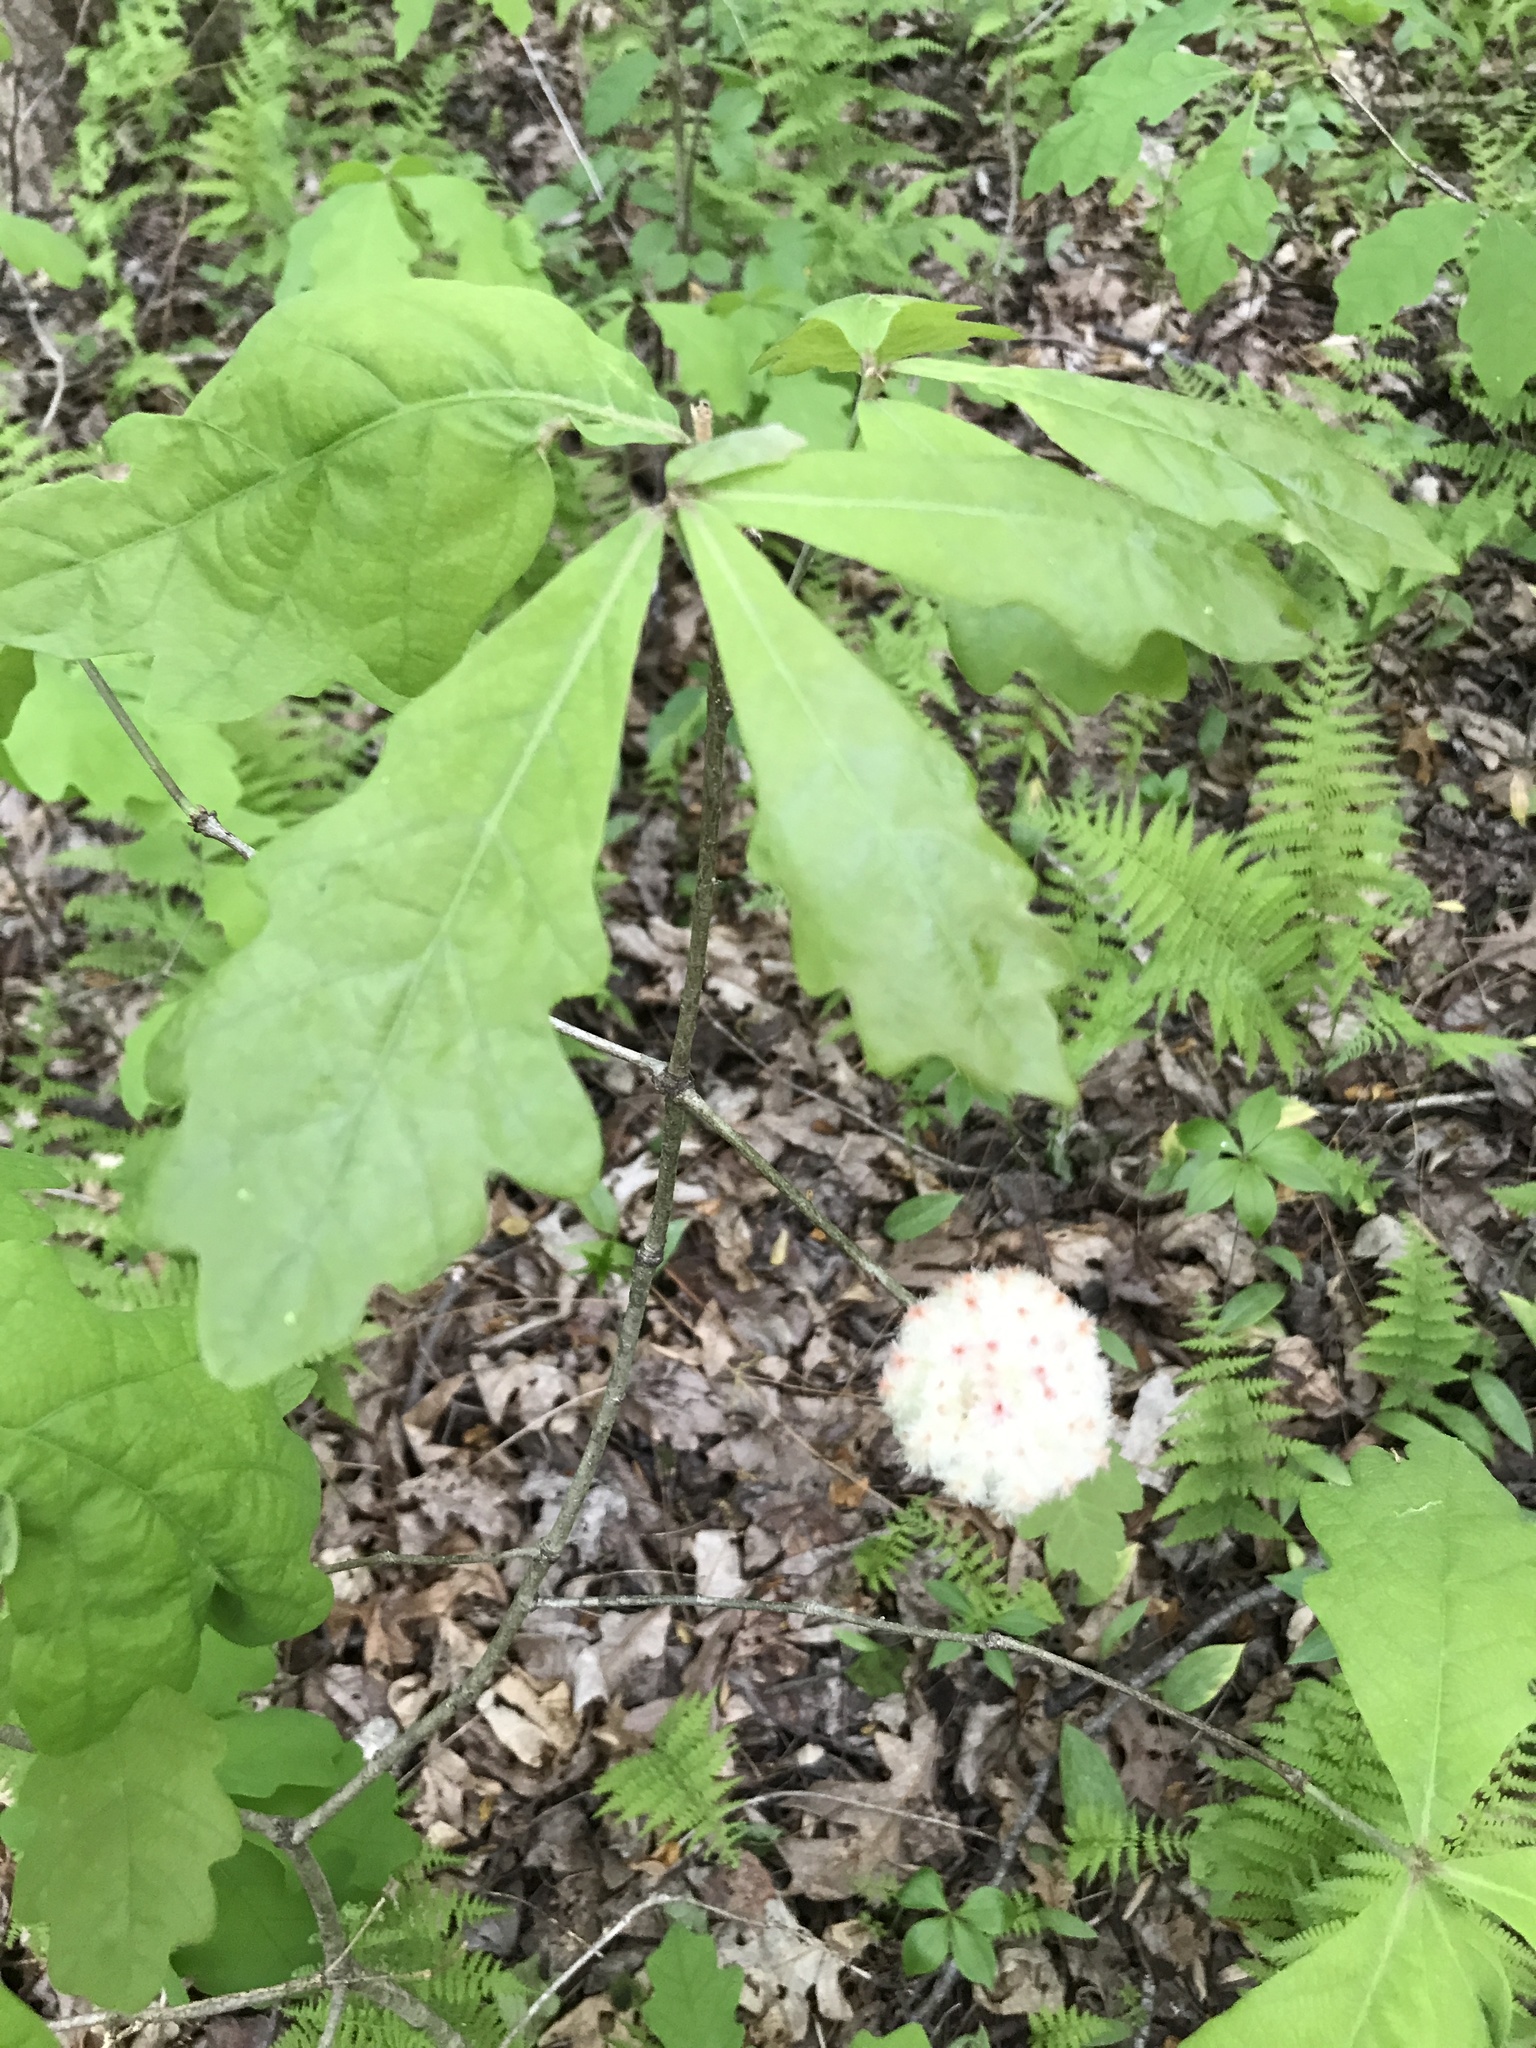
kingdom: Animalia
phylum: Arthropoda
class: Insecta
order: Hymenoptera
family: Cynipidae
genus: Callirhytis
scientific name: Callirhytis
